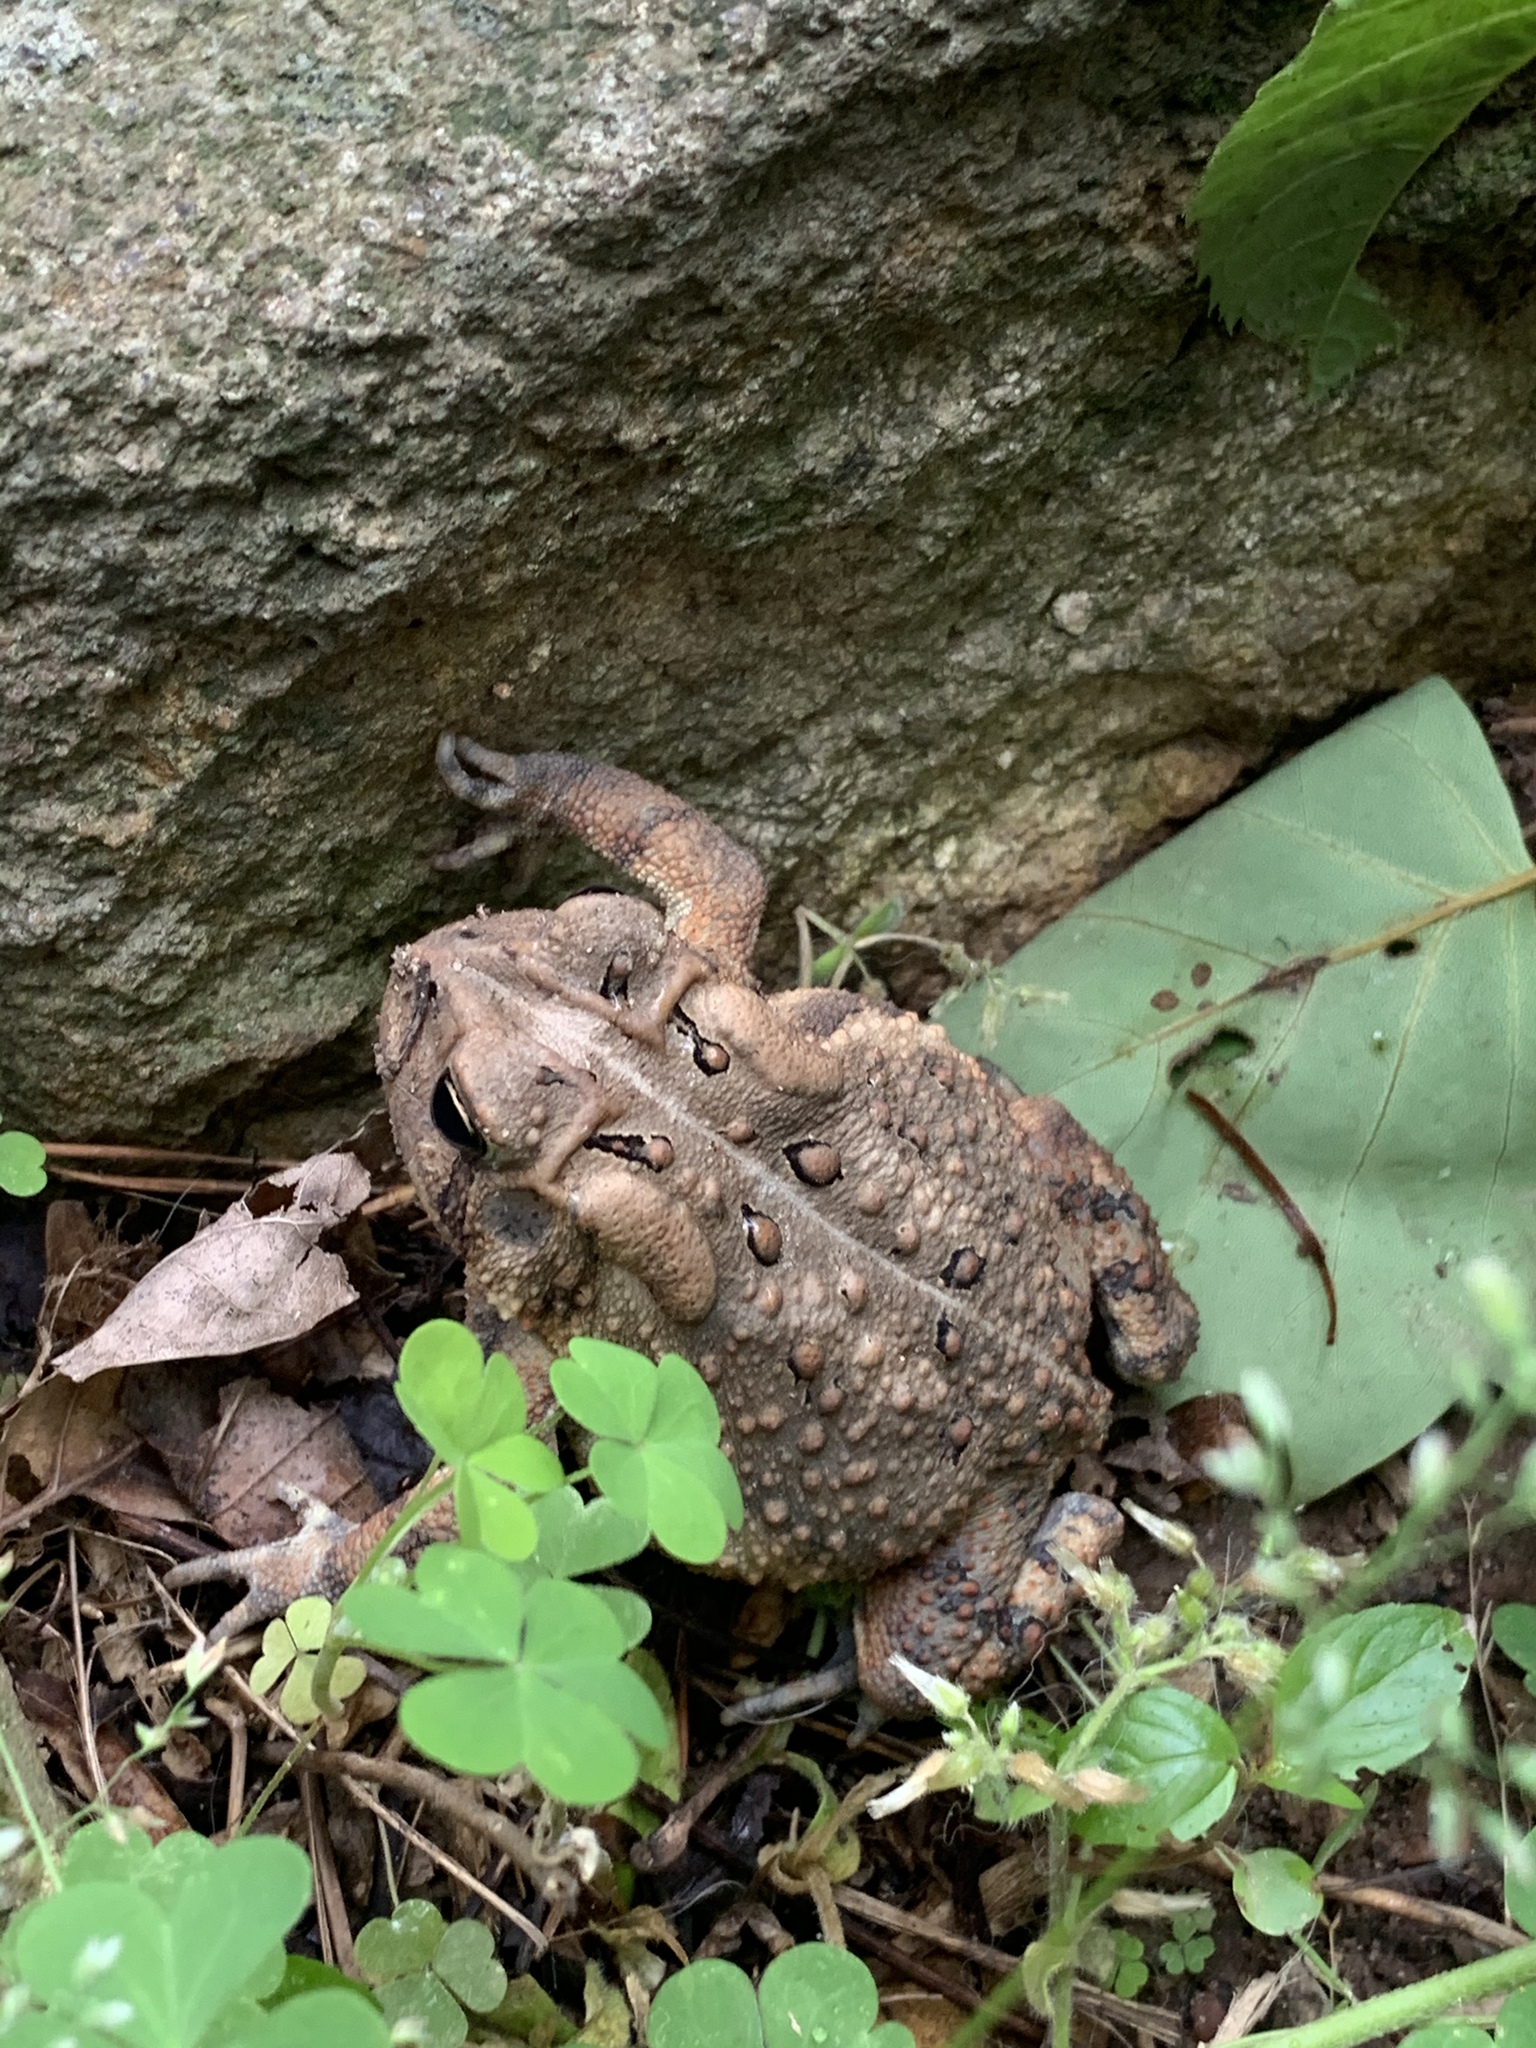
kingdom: Animalia
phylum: Chordata
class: Amphibia
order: Anura
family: Bufonidae
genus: Anaxyrus
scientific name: Anaxyrus americanus
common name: American toad
